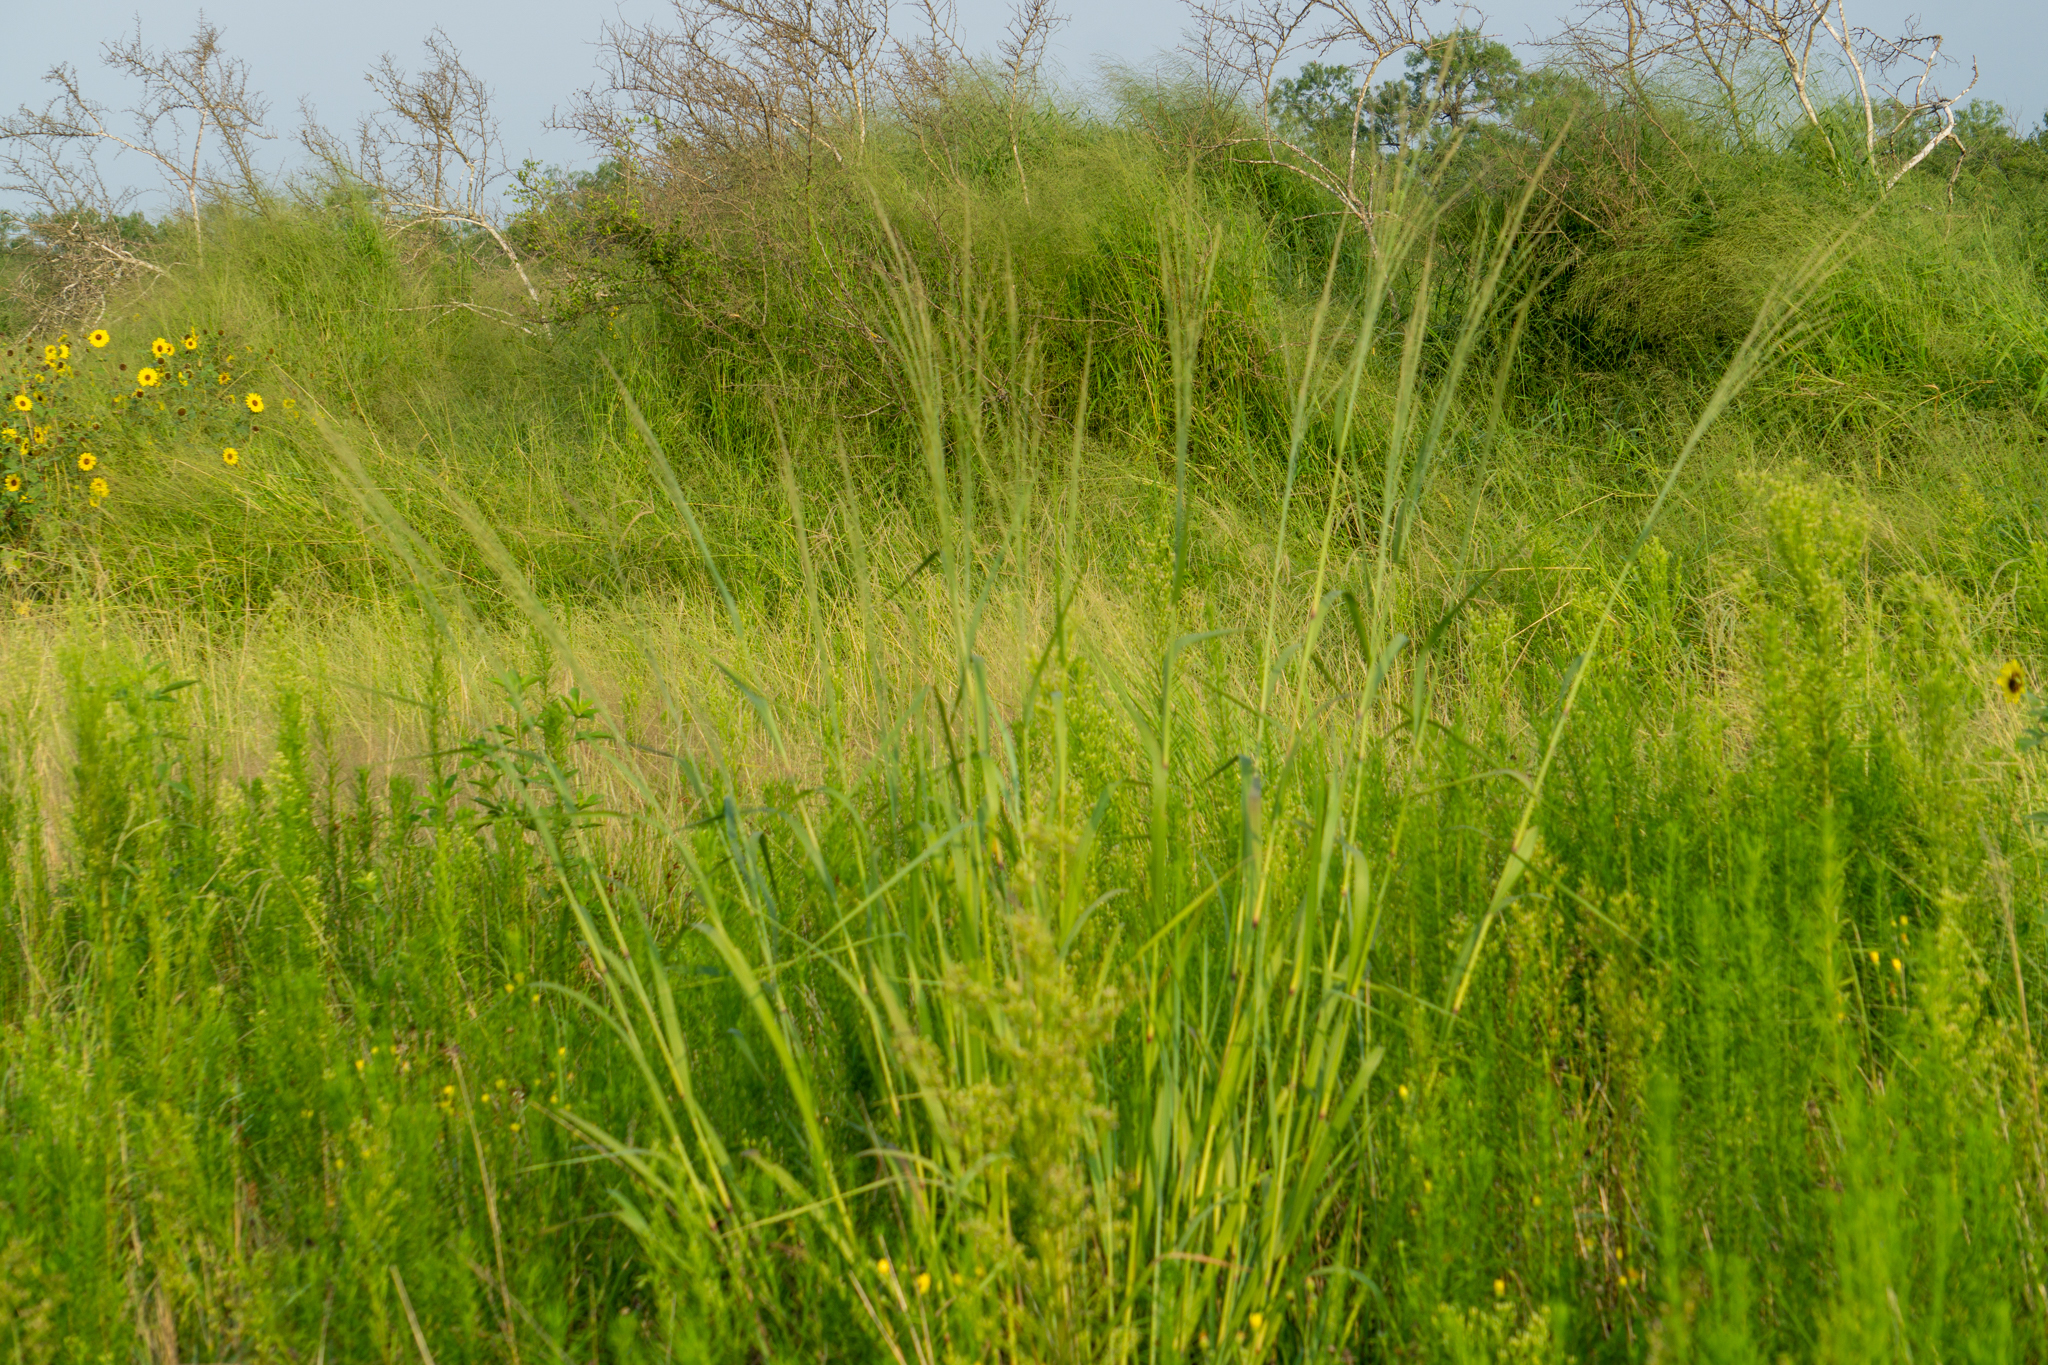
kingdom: Plantae
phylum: Tracheophyta
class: Liliopsida
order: Poales
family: Poaceae
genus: Panicum
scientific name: Panicum virgatum
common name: Switchgrass
